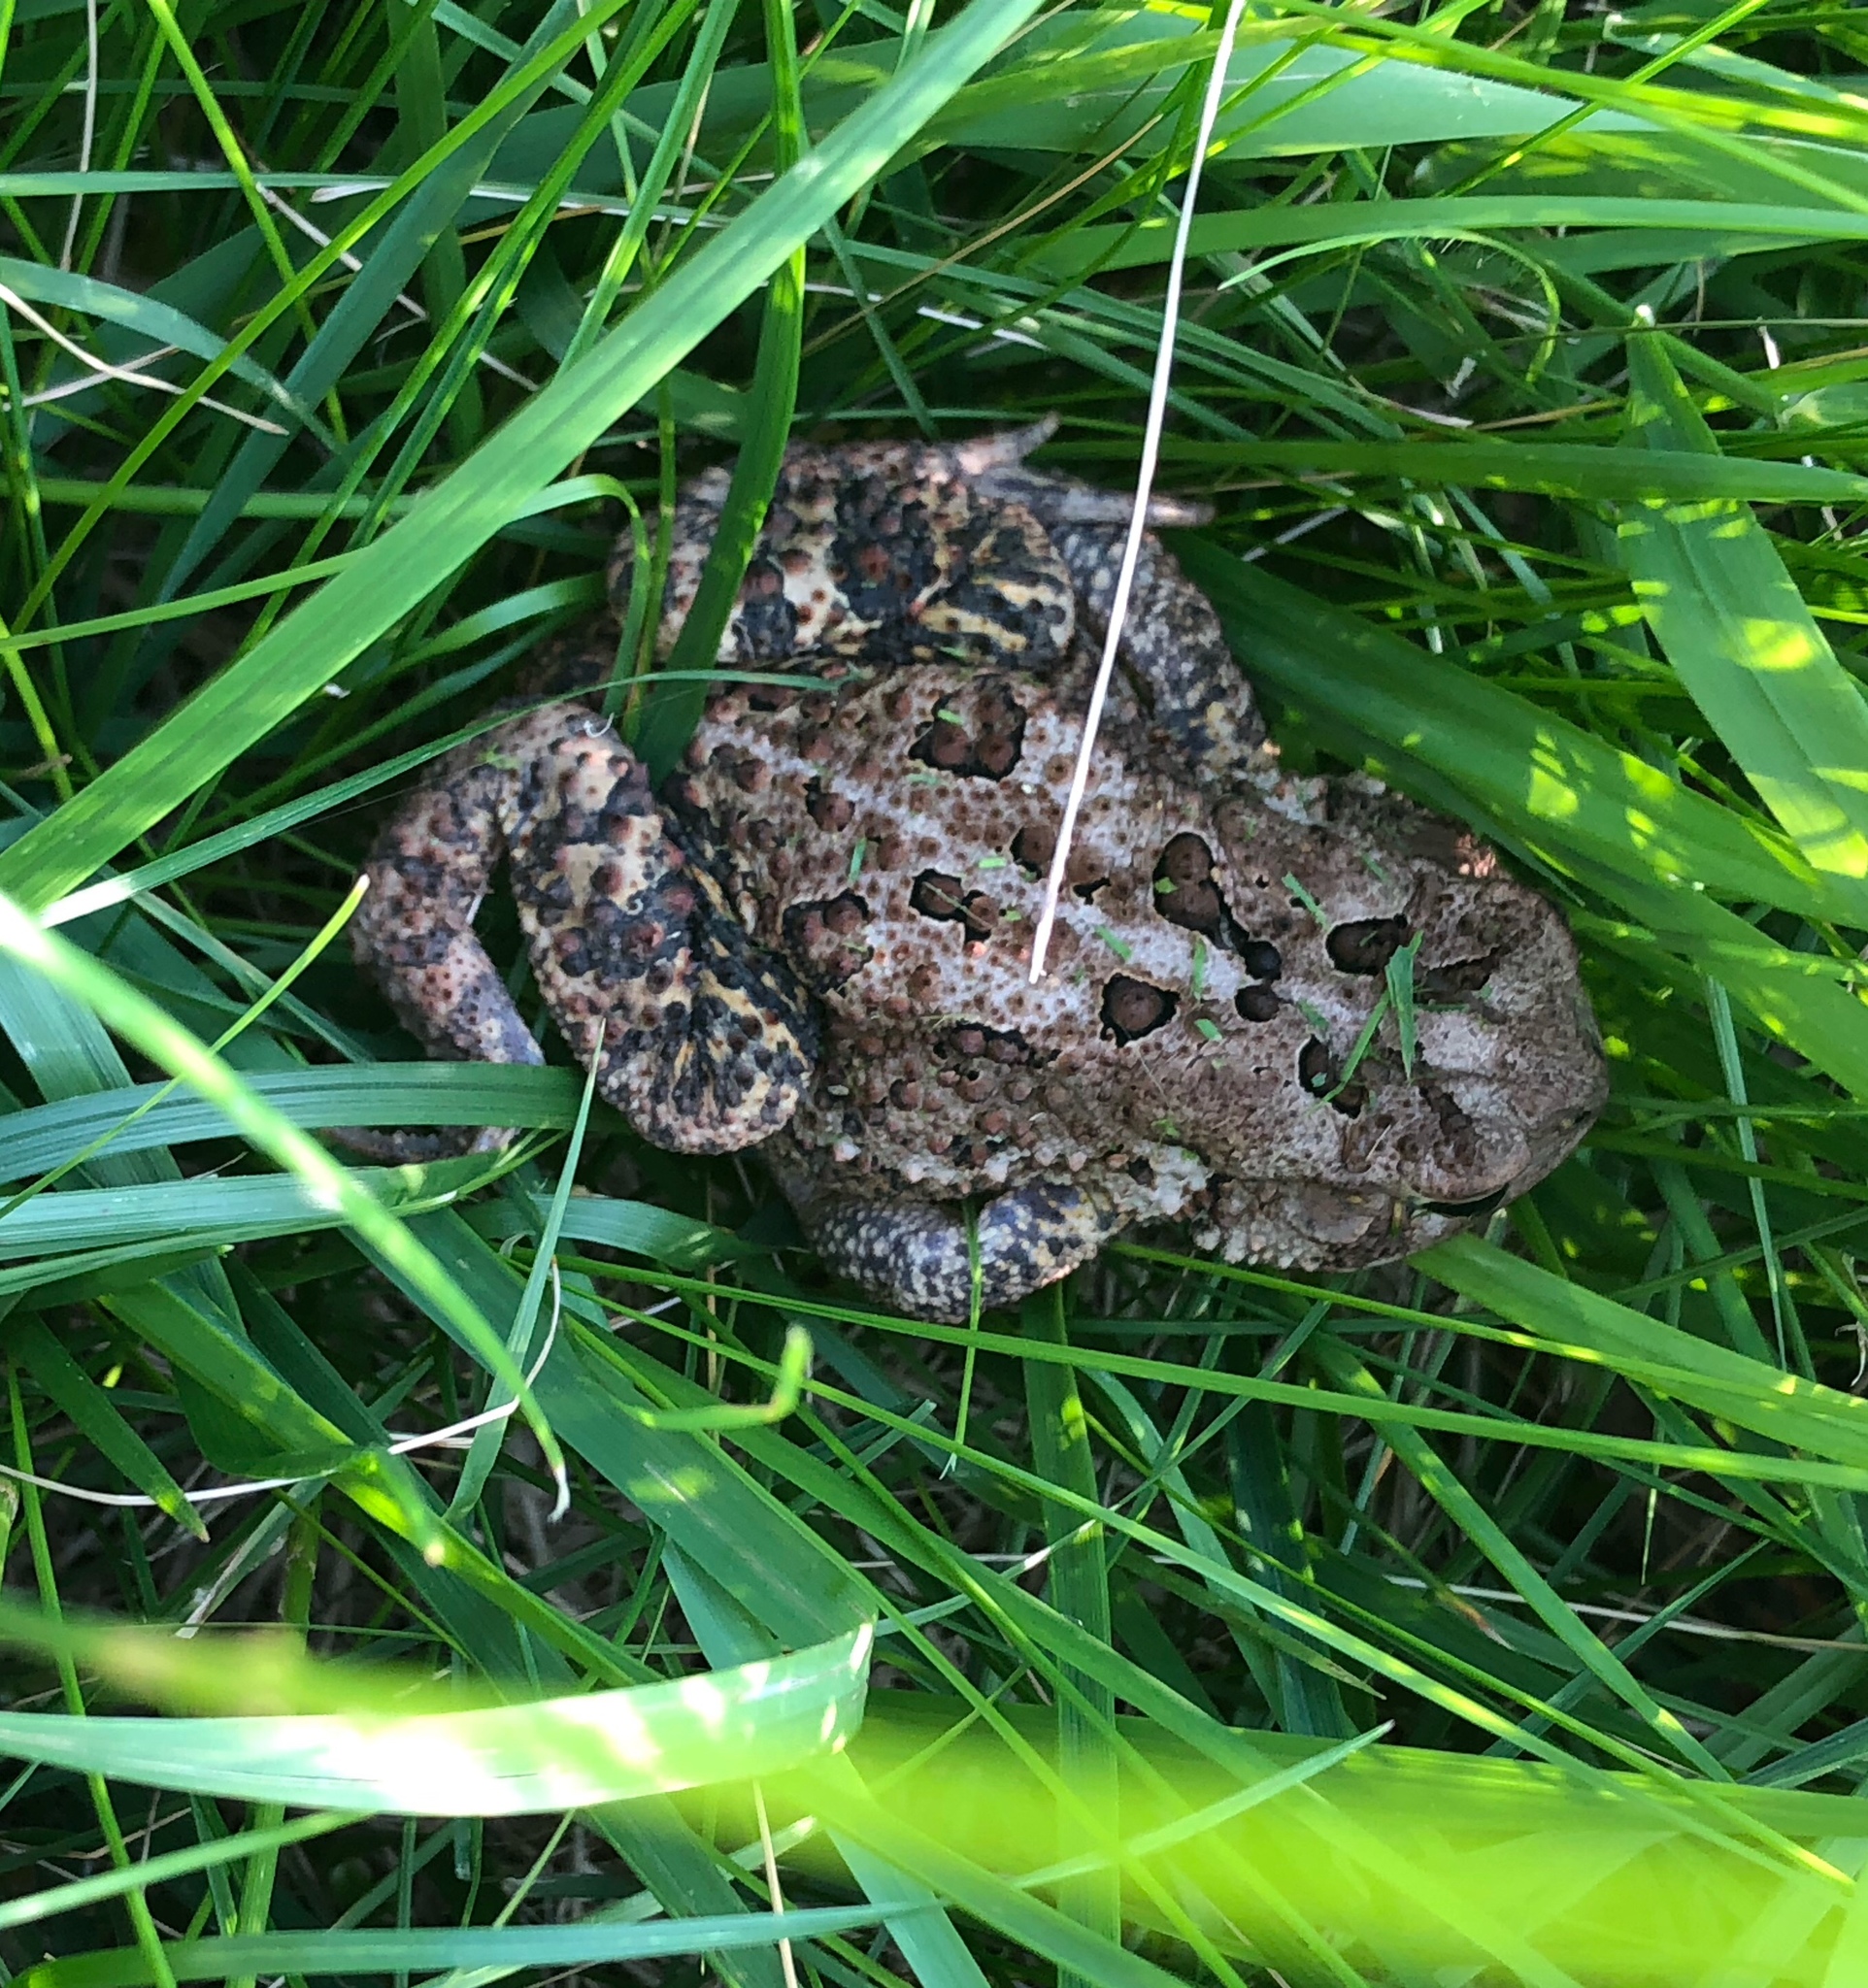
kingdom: Animalia
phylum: Chordata
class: Amphibia
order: Anura
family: Bufonidae
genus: Anaxyrus
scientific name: Anaxyrus americanus
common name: American toad
